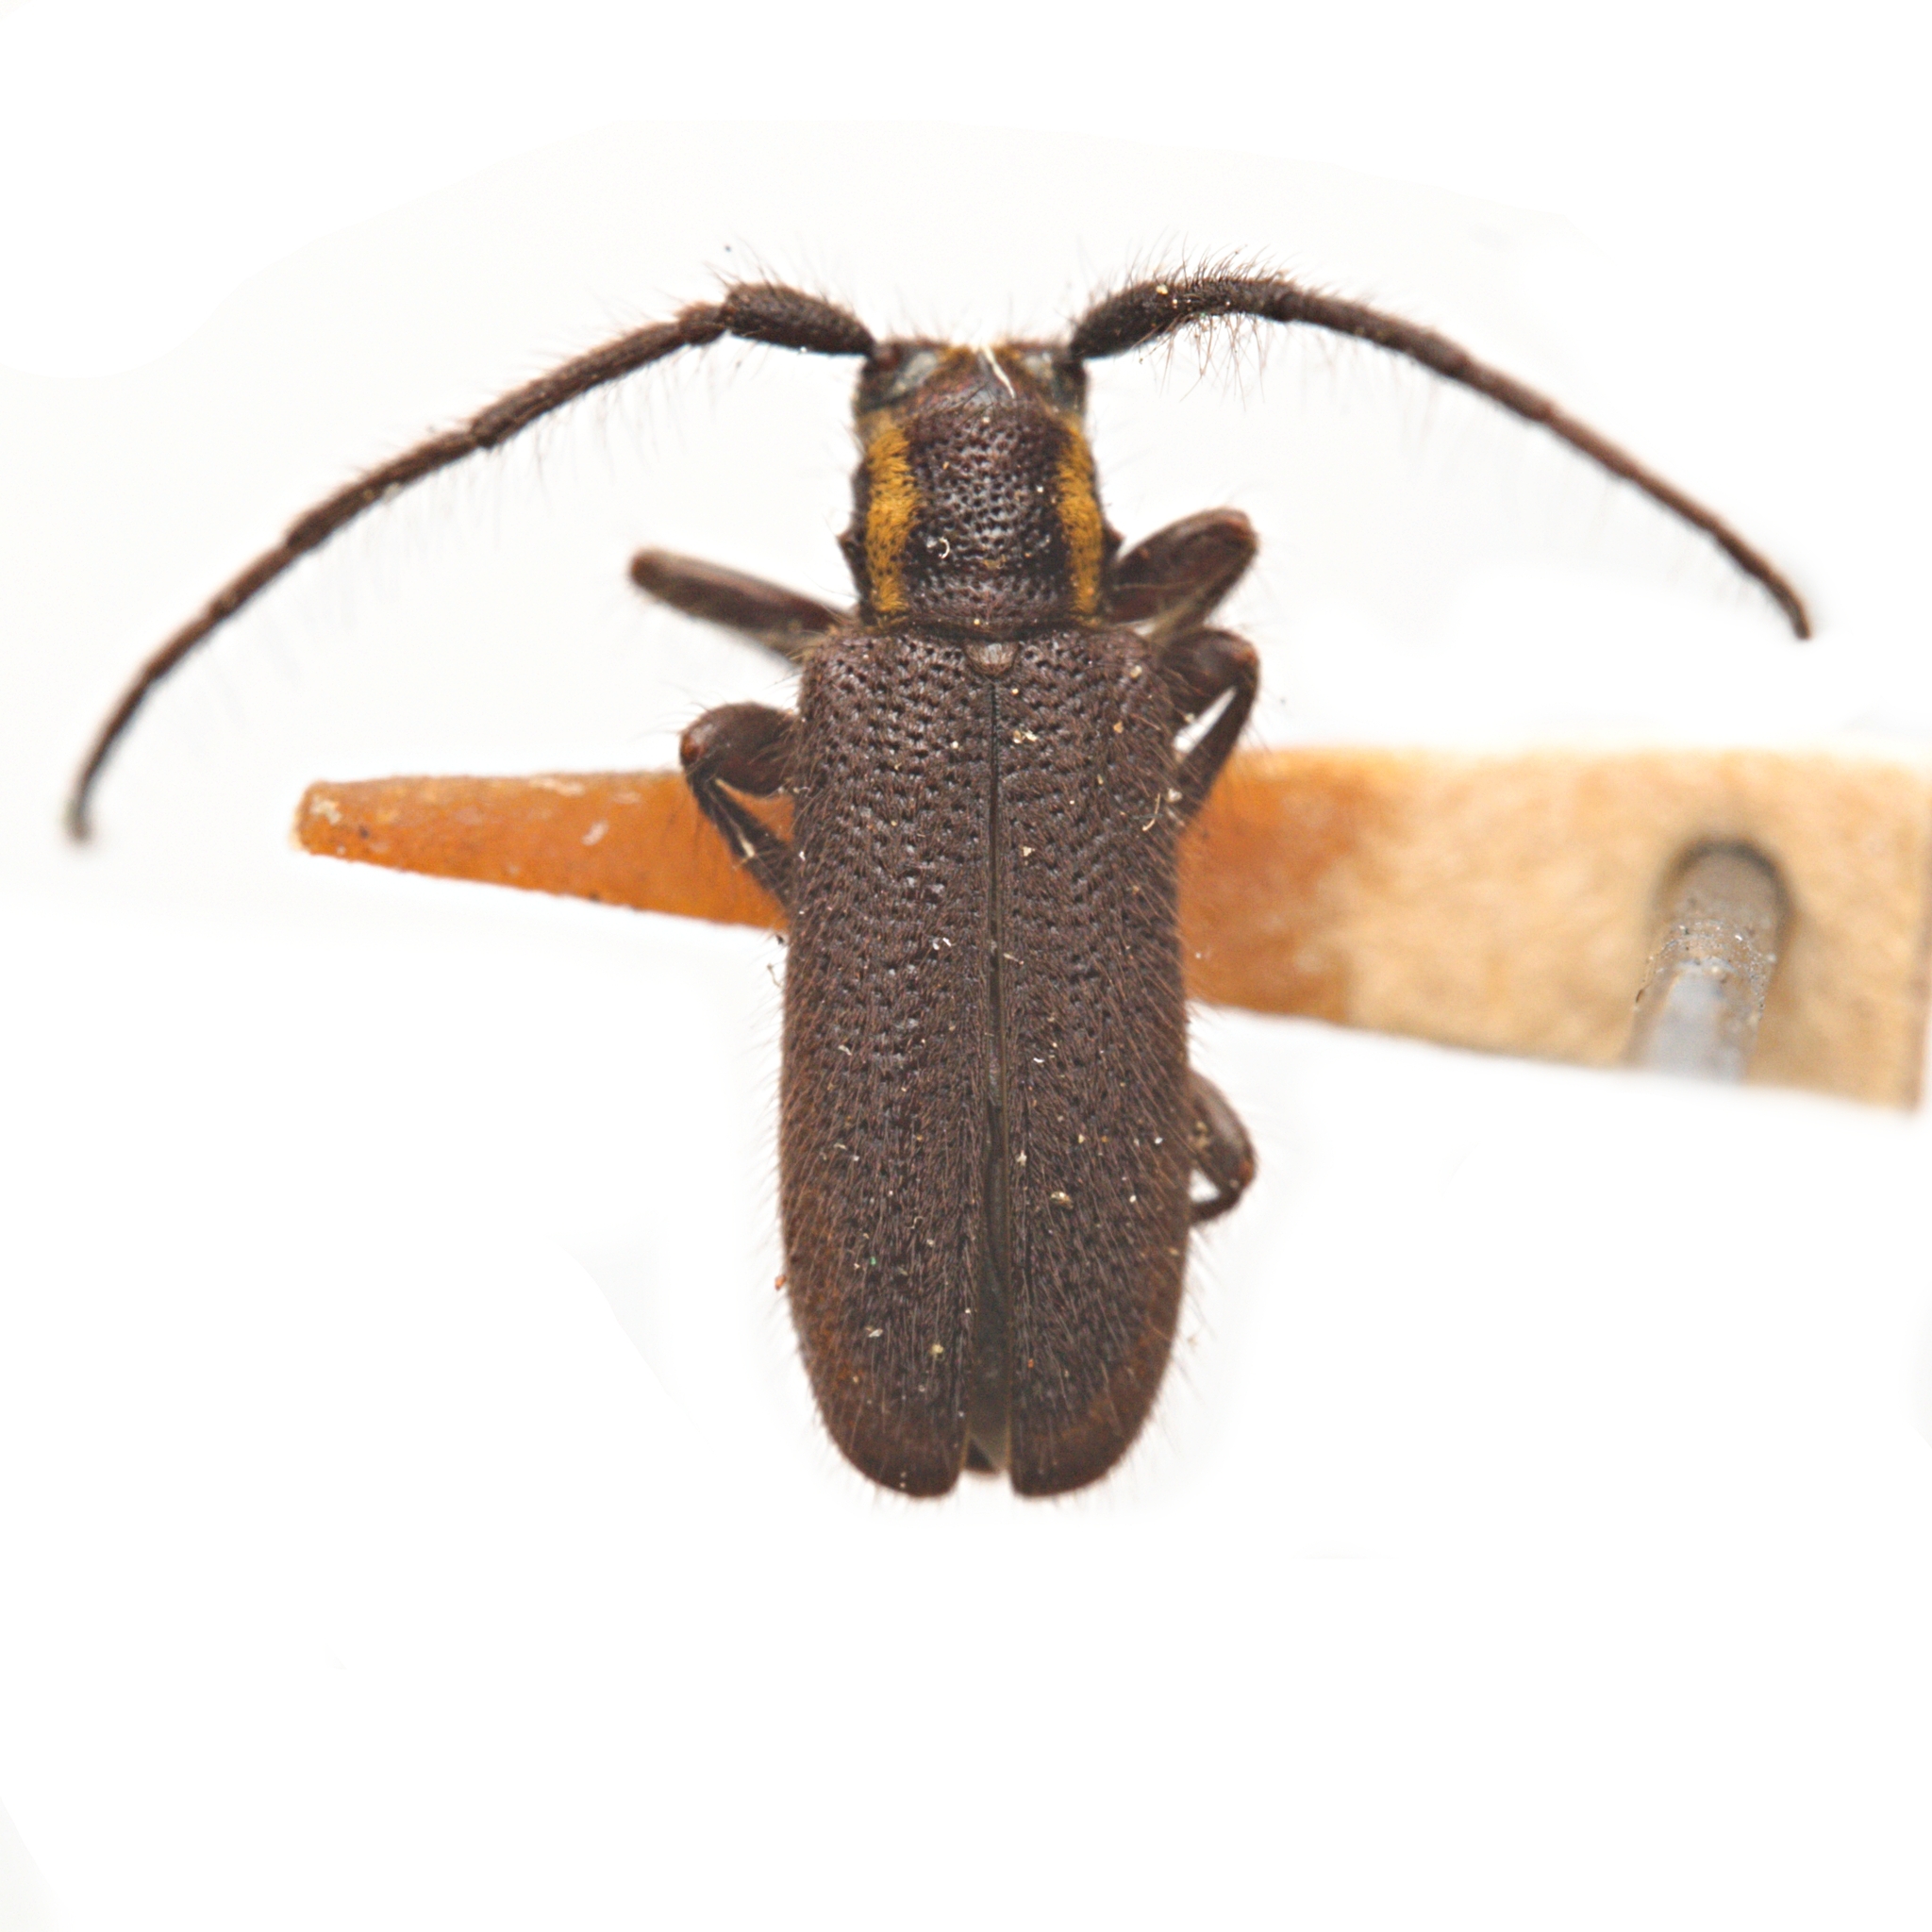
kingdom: Animalia
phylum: Arthropoda
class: Insecta
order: Coleoptera
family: Cerambycidae
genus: Eupogonius
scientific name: Eupogonius subarmatus
